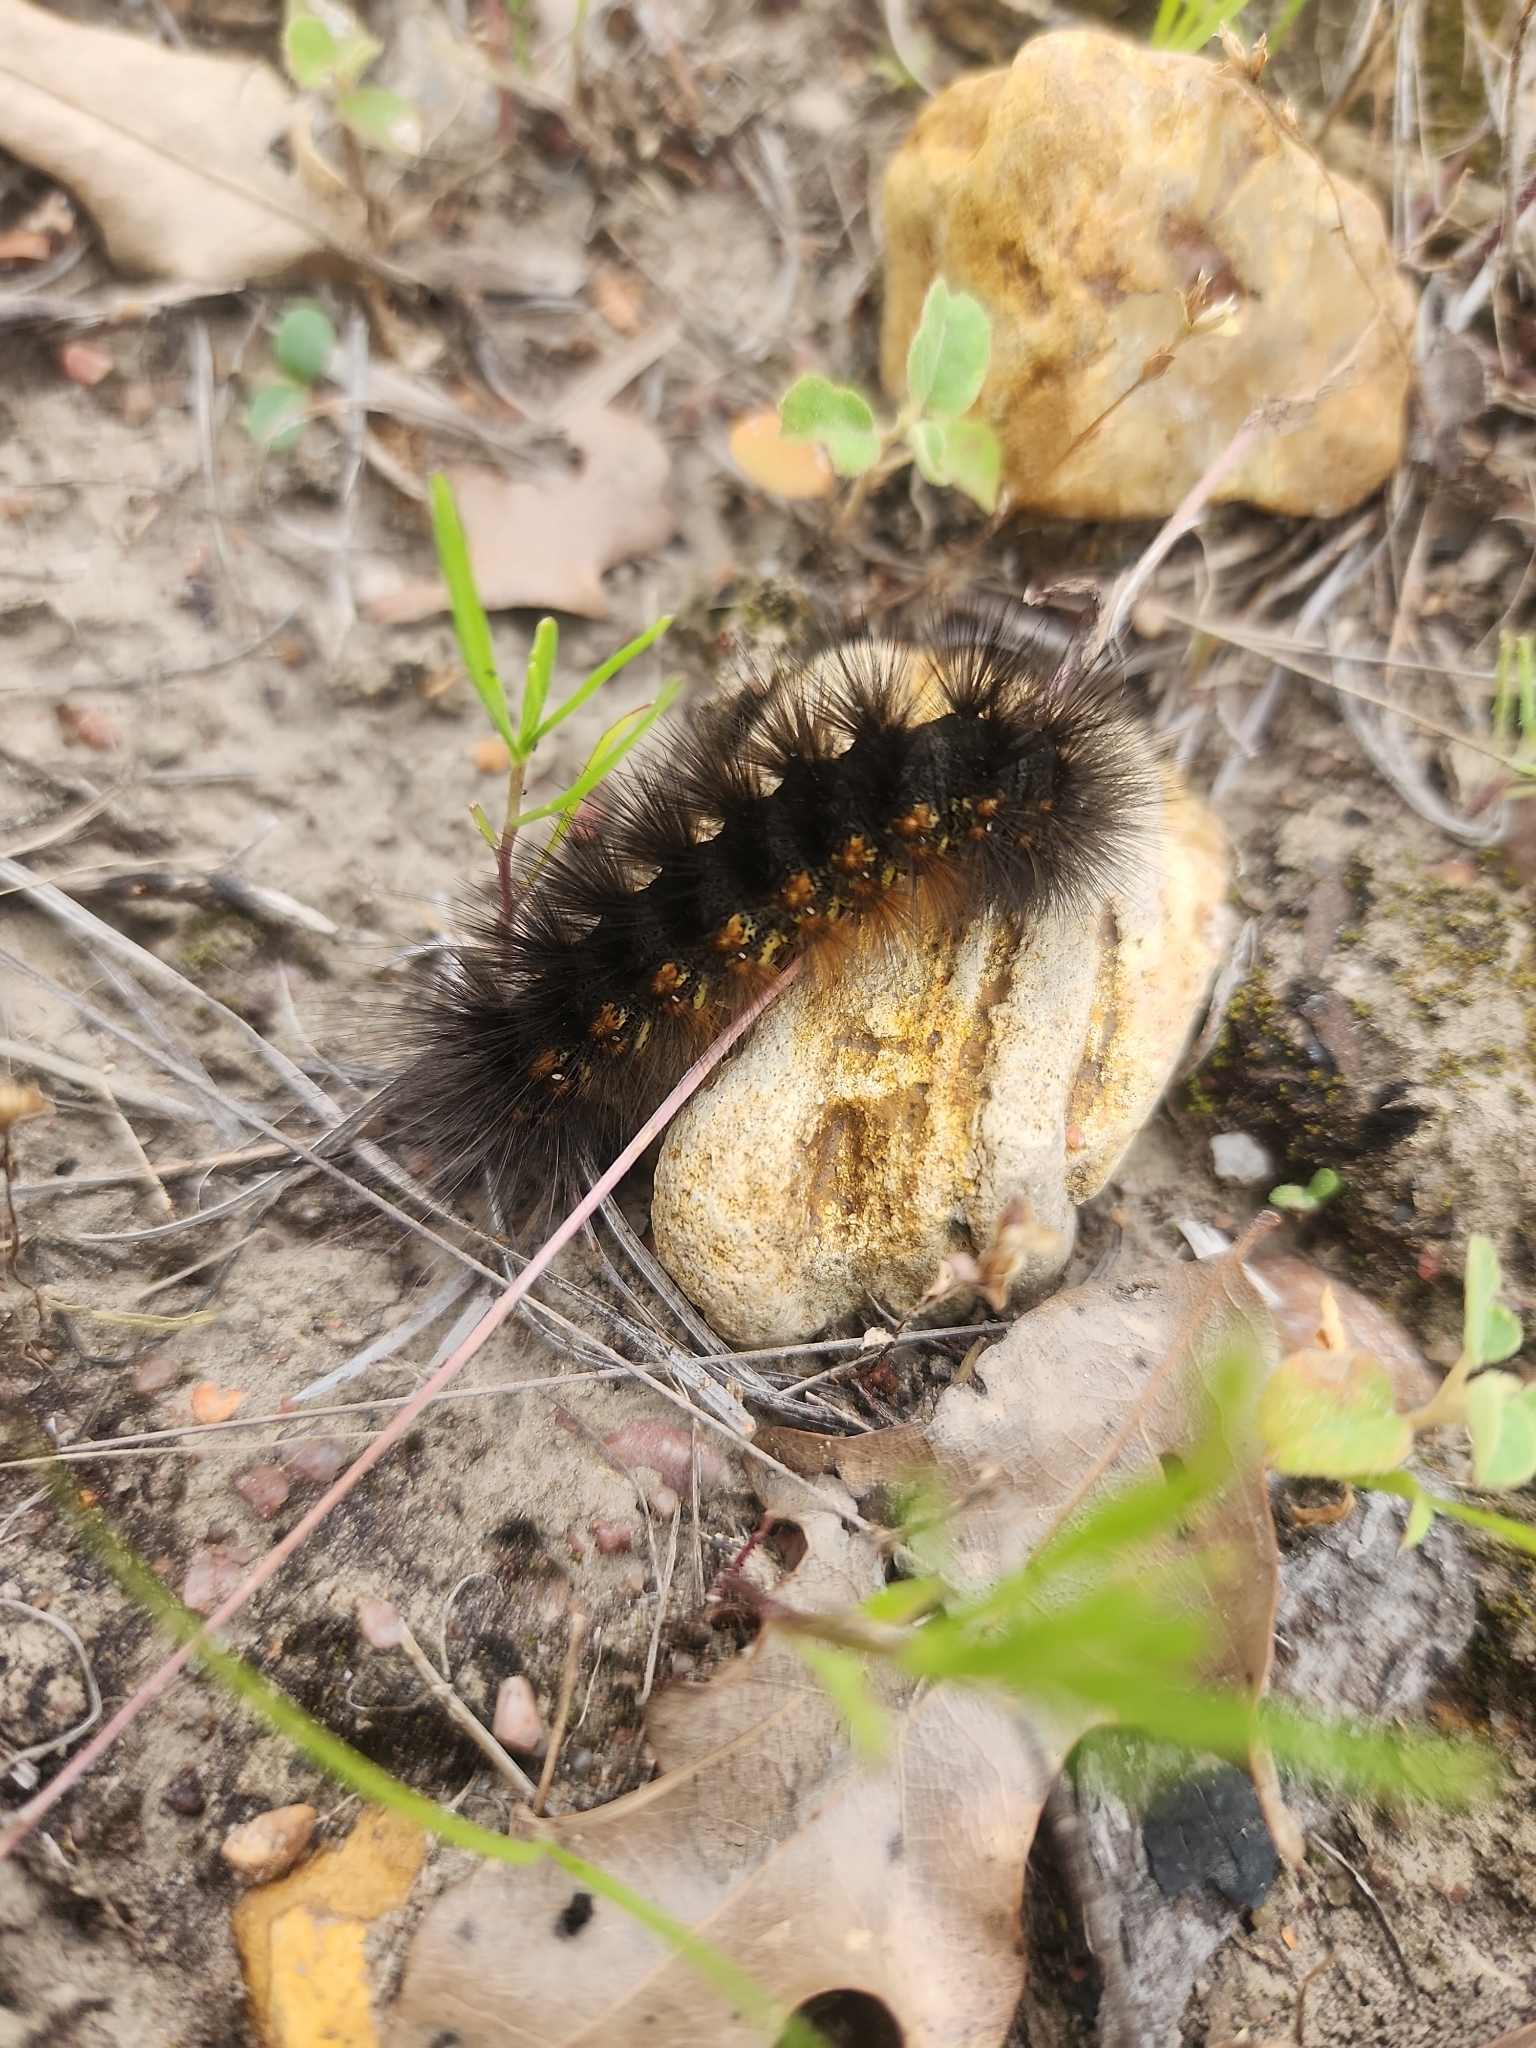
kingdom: Animalia
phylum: Arthropoda
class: Insecta
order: Lepidoptera
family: Erebidae
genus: Estigmene
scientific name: Estigmene acrea
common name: Salt marsh moth
